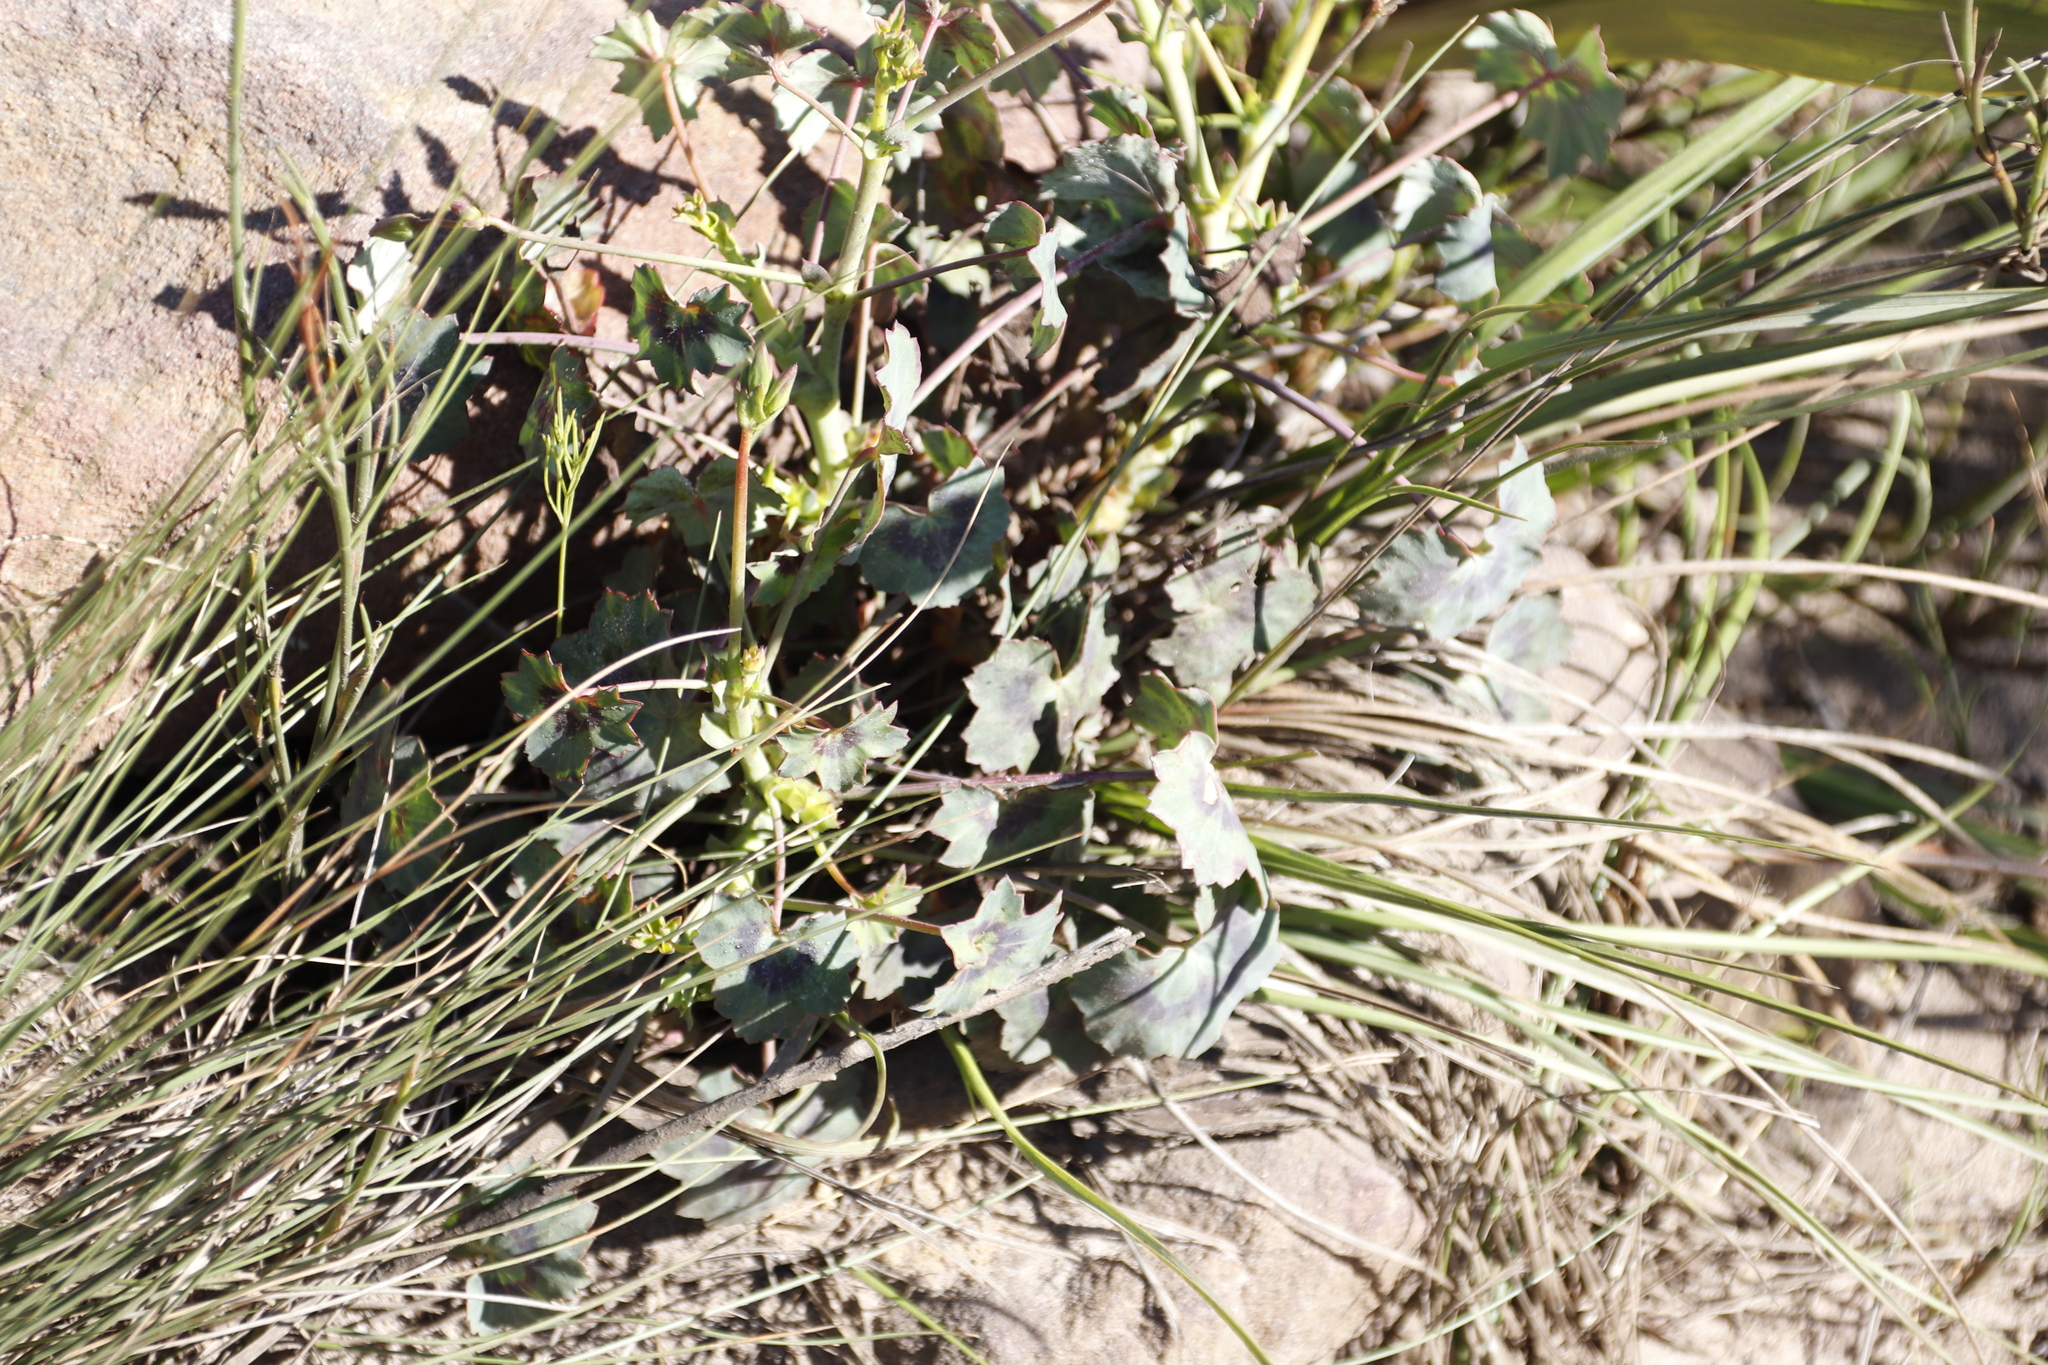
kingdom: Plantae
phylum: Tracheophyta
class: Magnoliopsida
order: Geraniales
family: Geraniaceae
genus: Pelargonium
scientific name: Pelargonium tabulare
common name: Table mountain pelargonium
